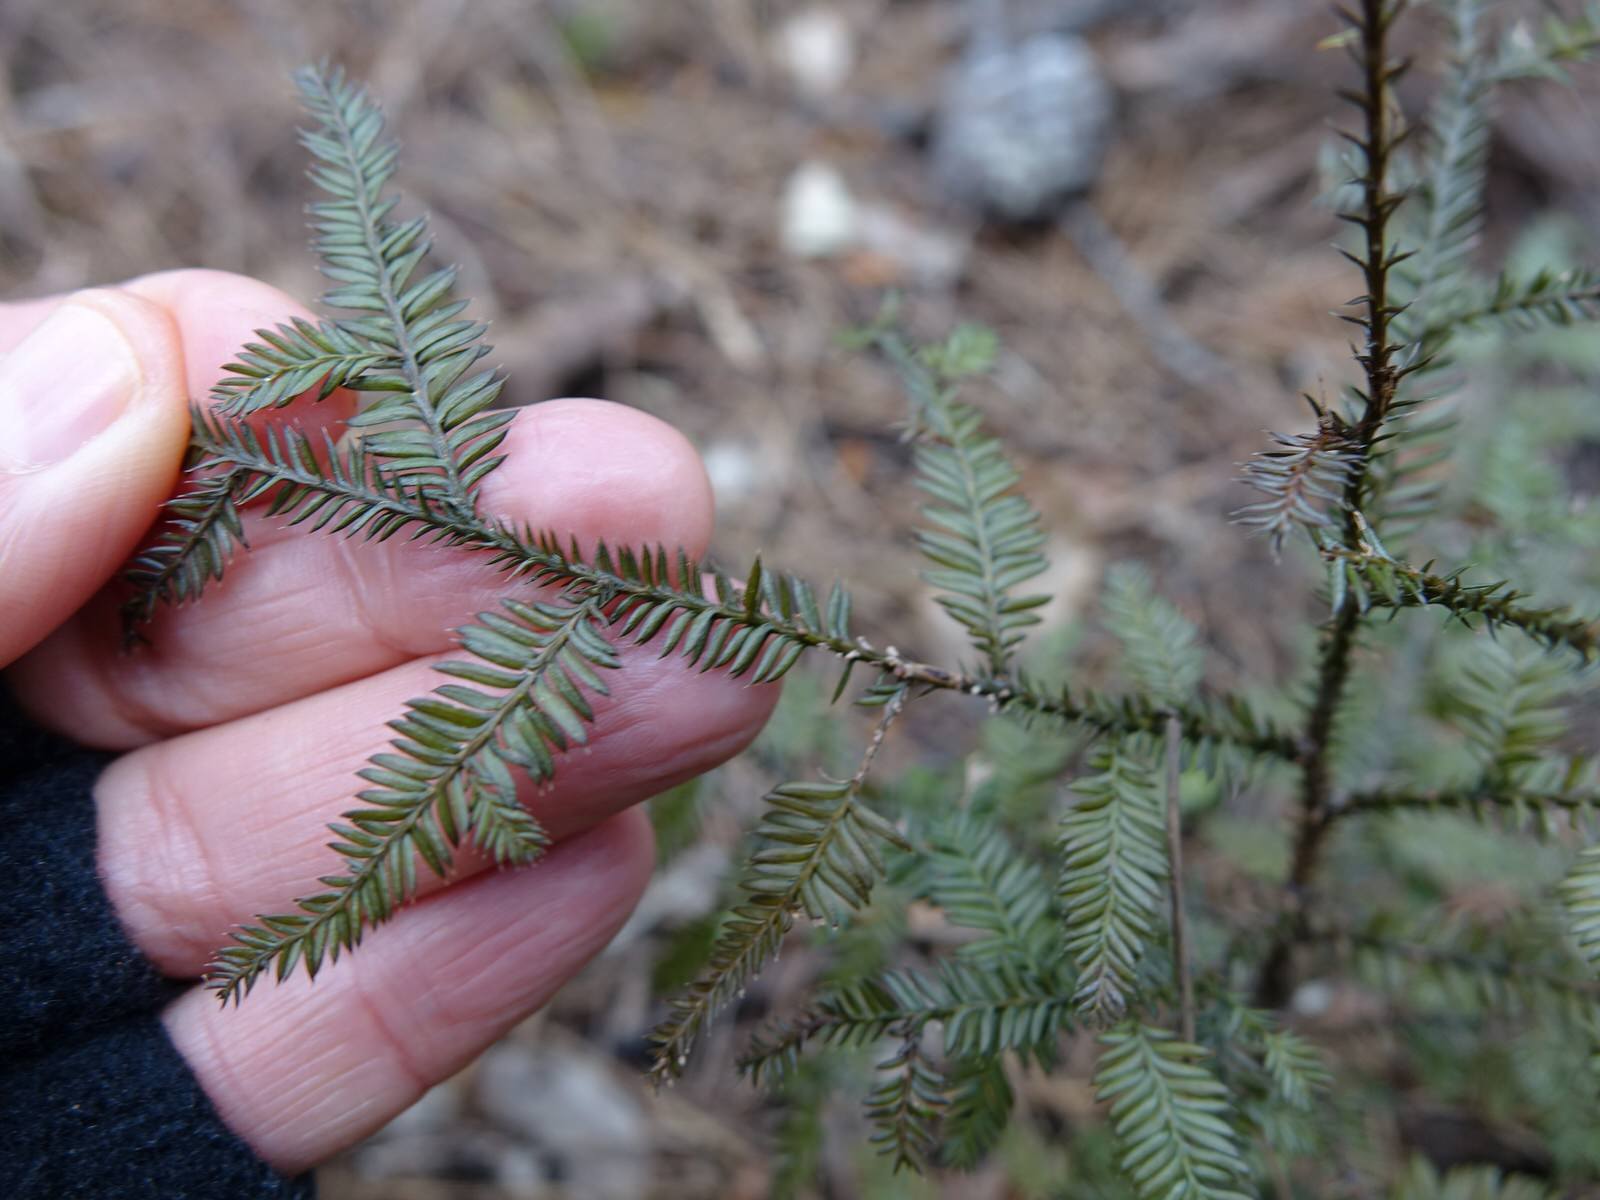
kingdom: Plantae
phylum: Tracheophyta
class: Pinopsida
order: Pinales
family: Podocarpaceae
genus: Dacrycarpus
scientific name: Dacrycarpus dacrydioides
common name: White pine
